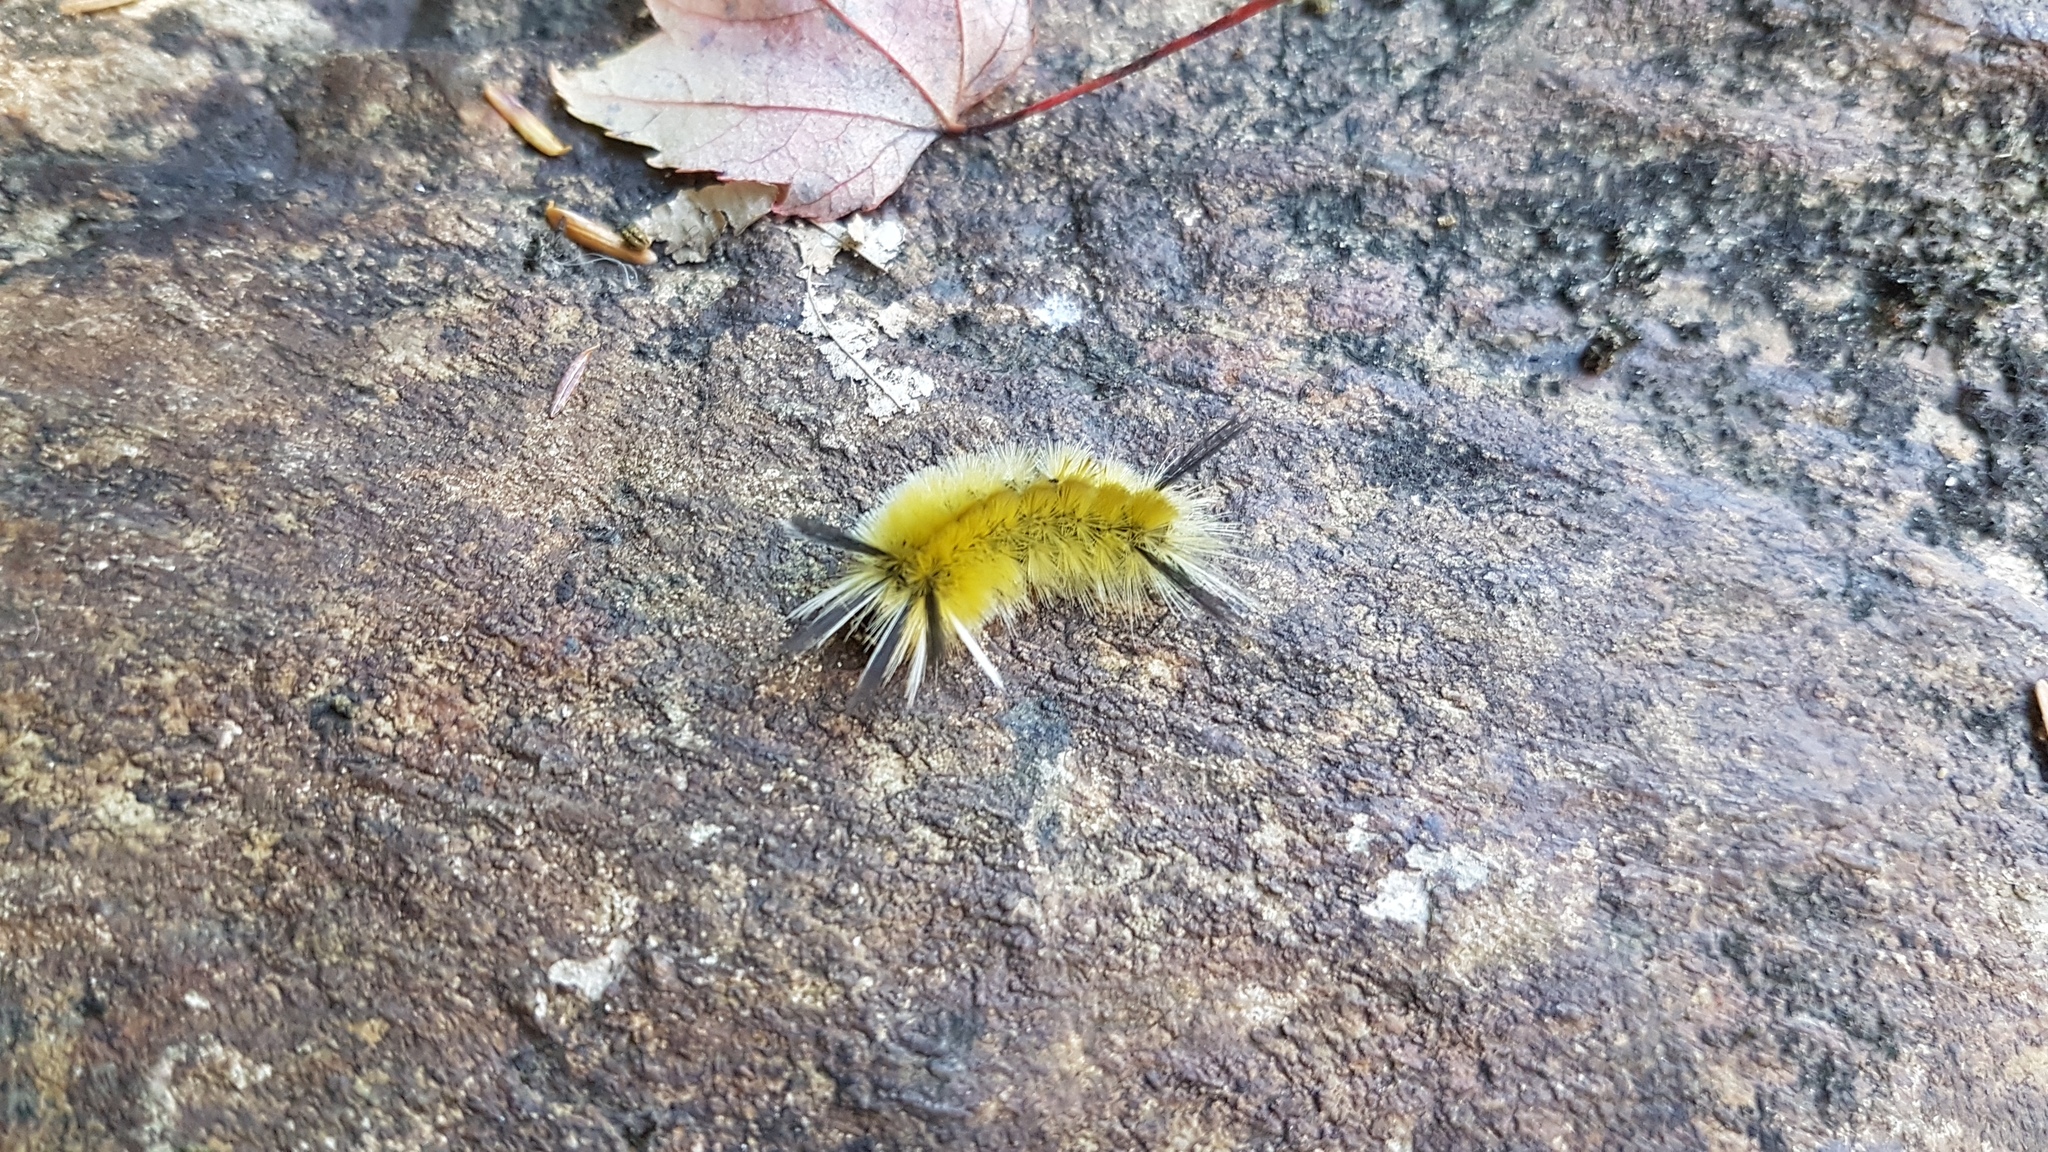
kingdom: Animalia
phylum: Arthropoda
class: Insecta
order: Lepidoptera
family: Erebidae
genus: Halysidota
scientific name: Halysidota tessellaris
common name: Banded tussock moth
